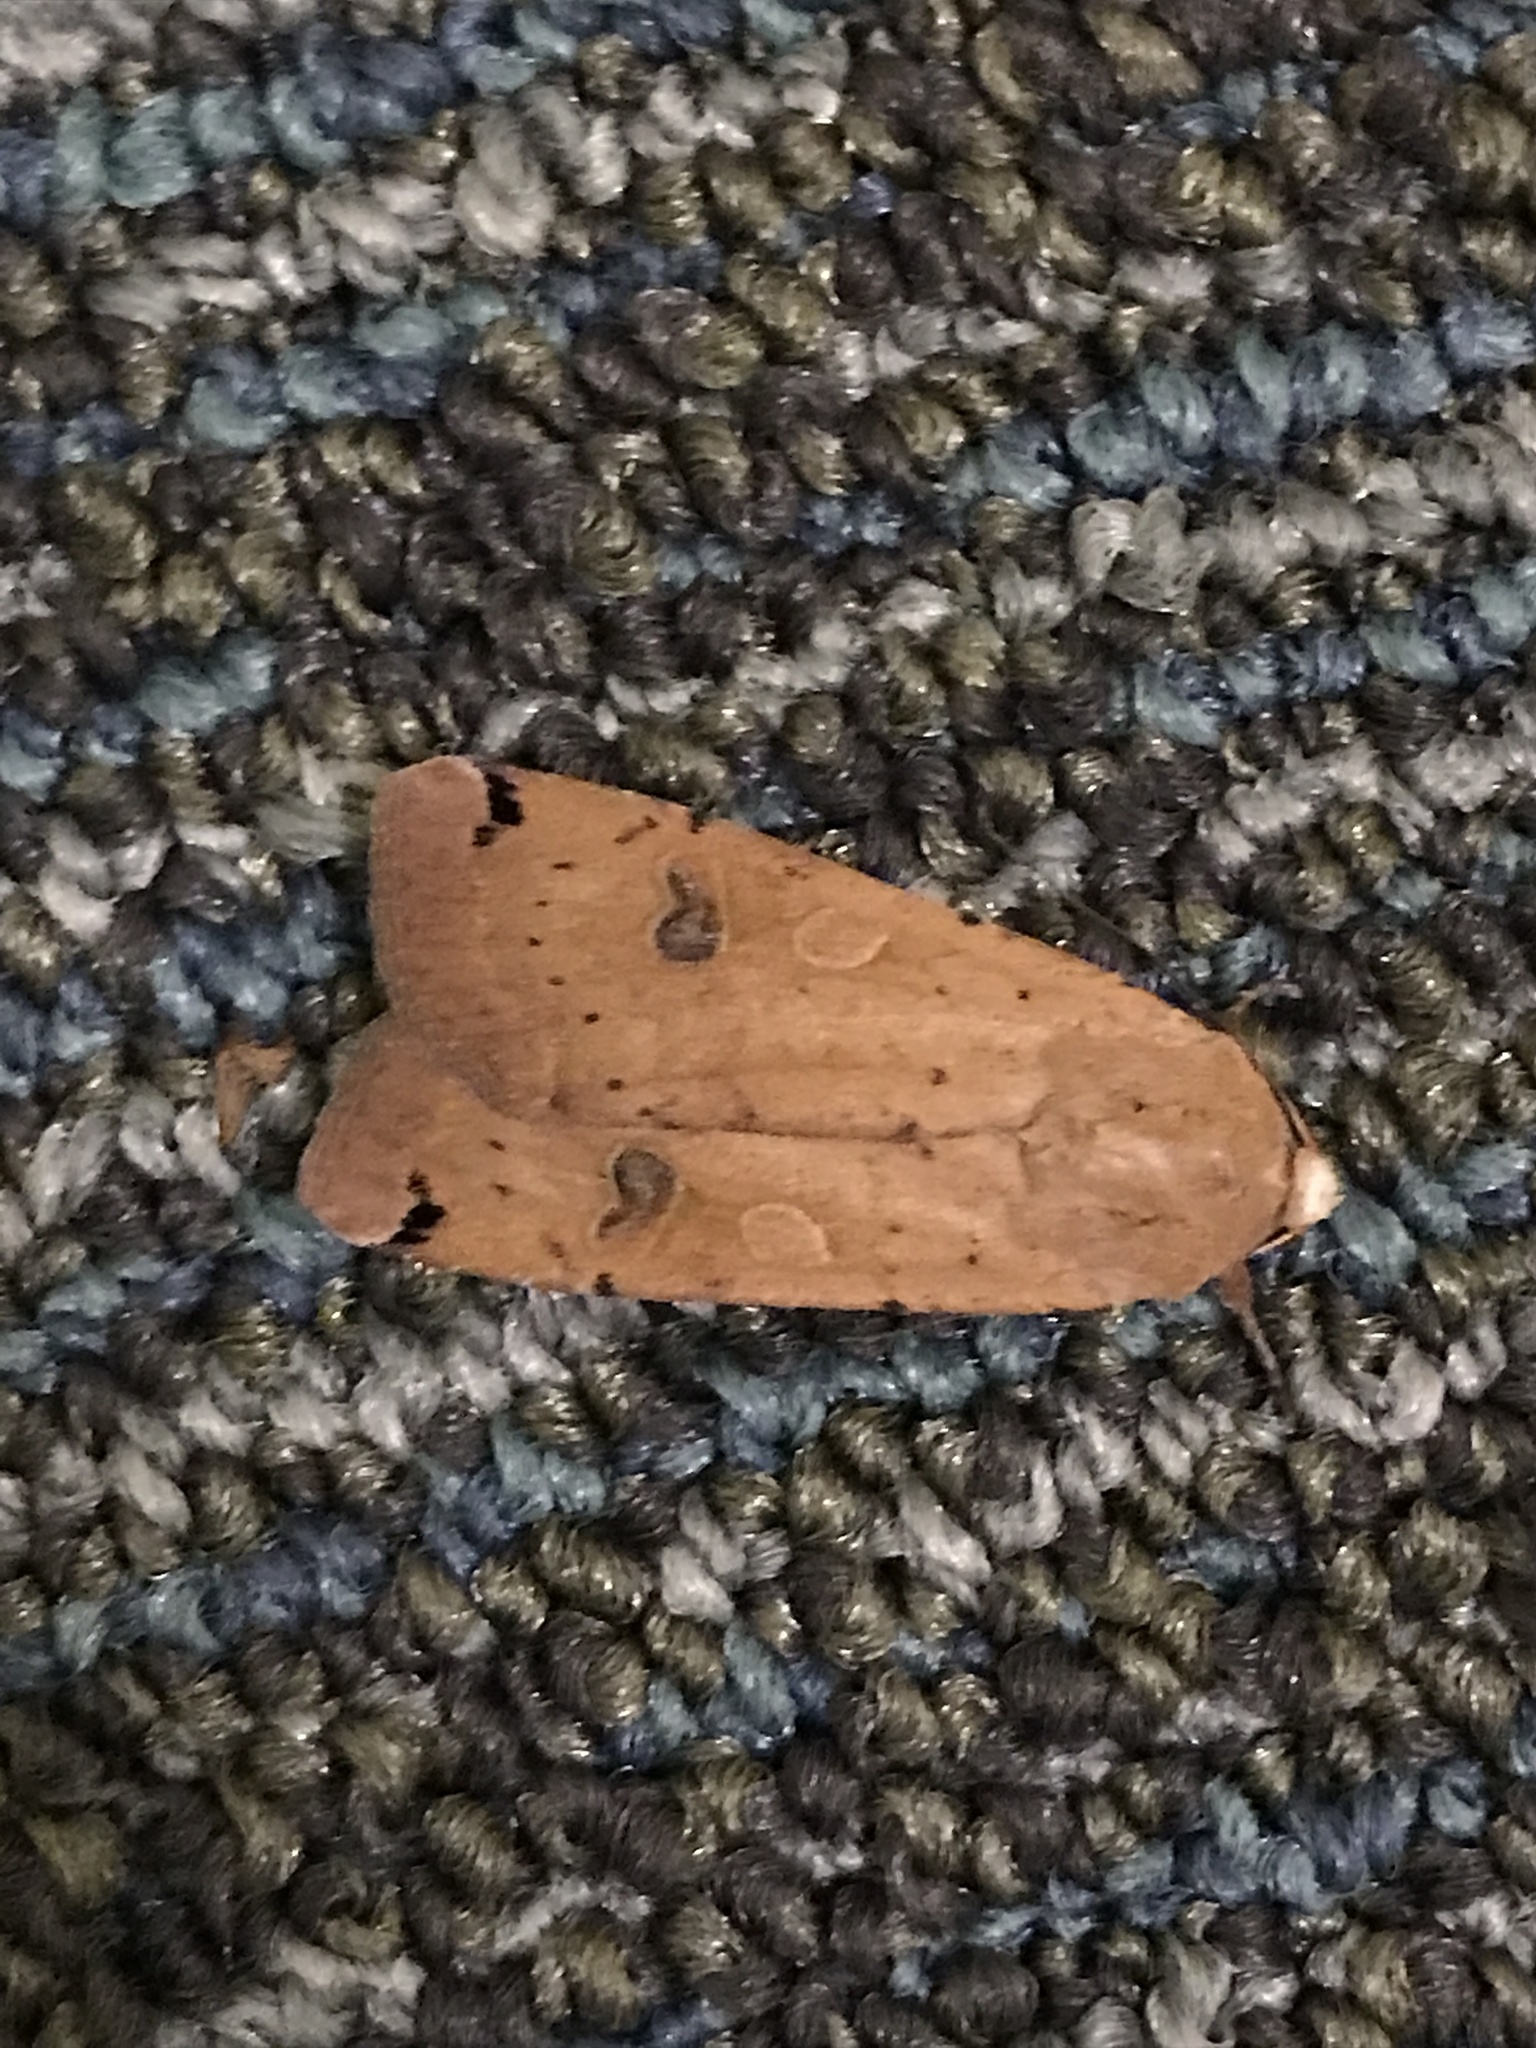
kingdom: Animalia
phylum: Arthropoda
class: Insecta
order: Lepidoptera
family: Noctuidae
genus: Noctua
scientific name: Noctua pronuba
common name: Large yellow underwing
